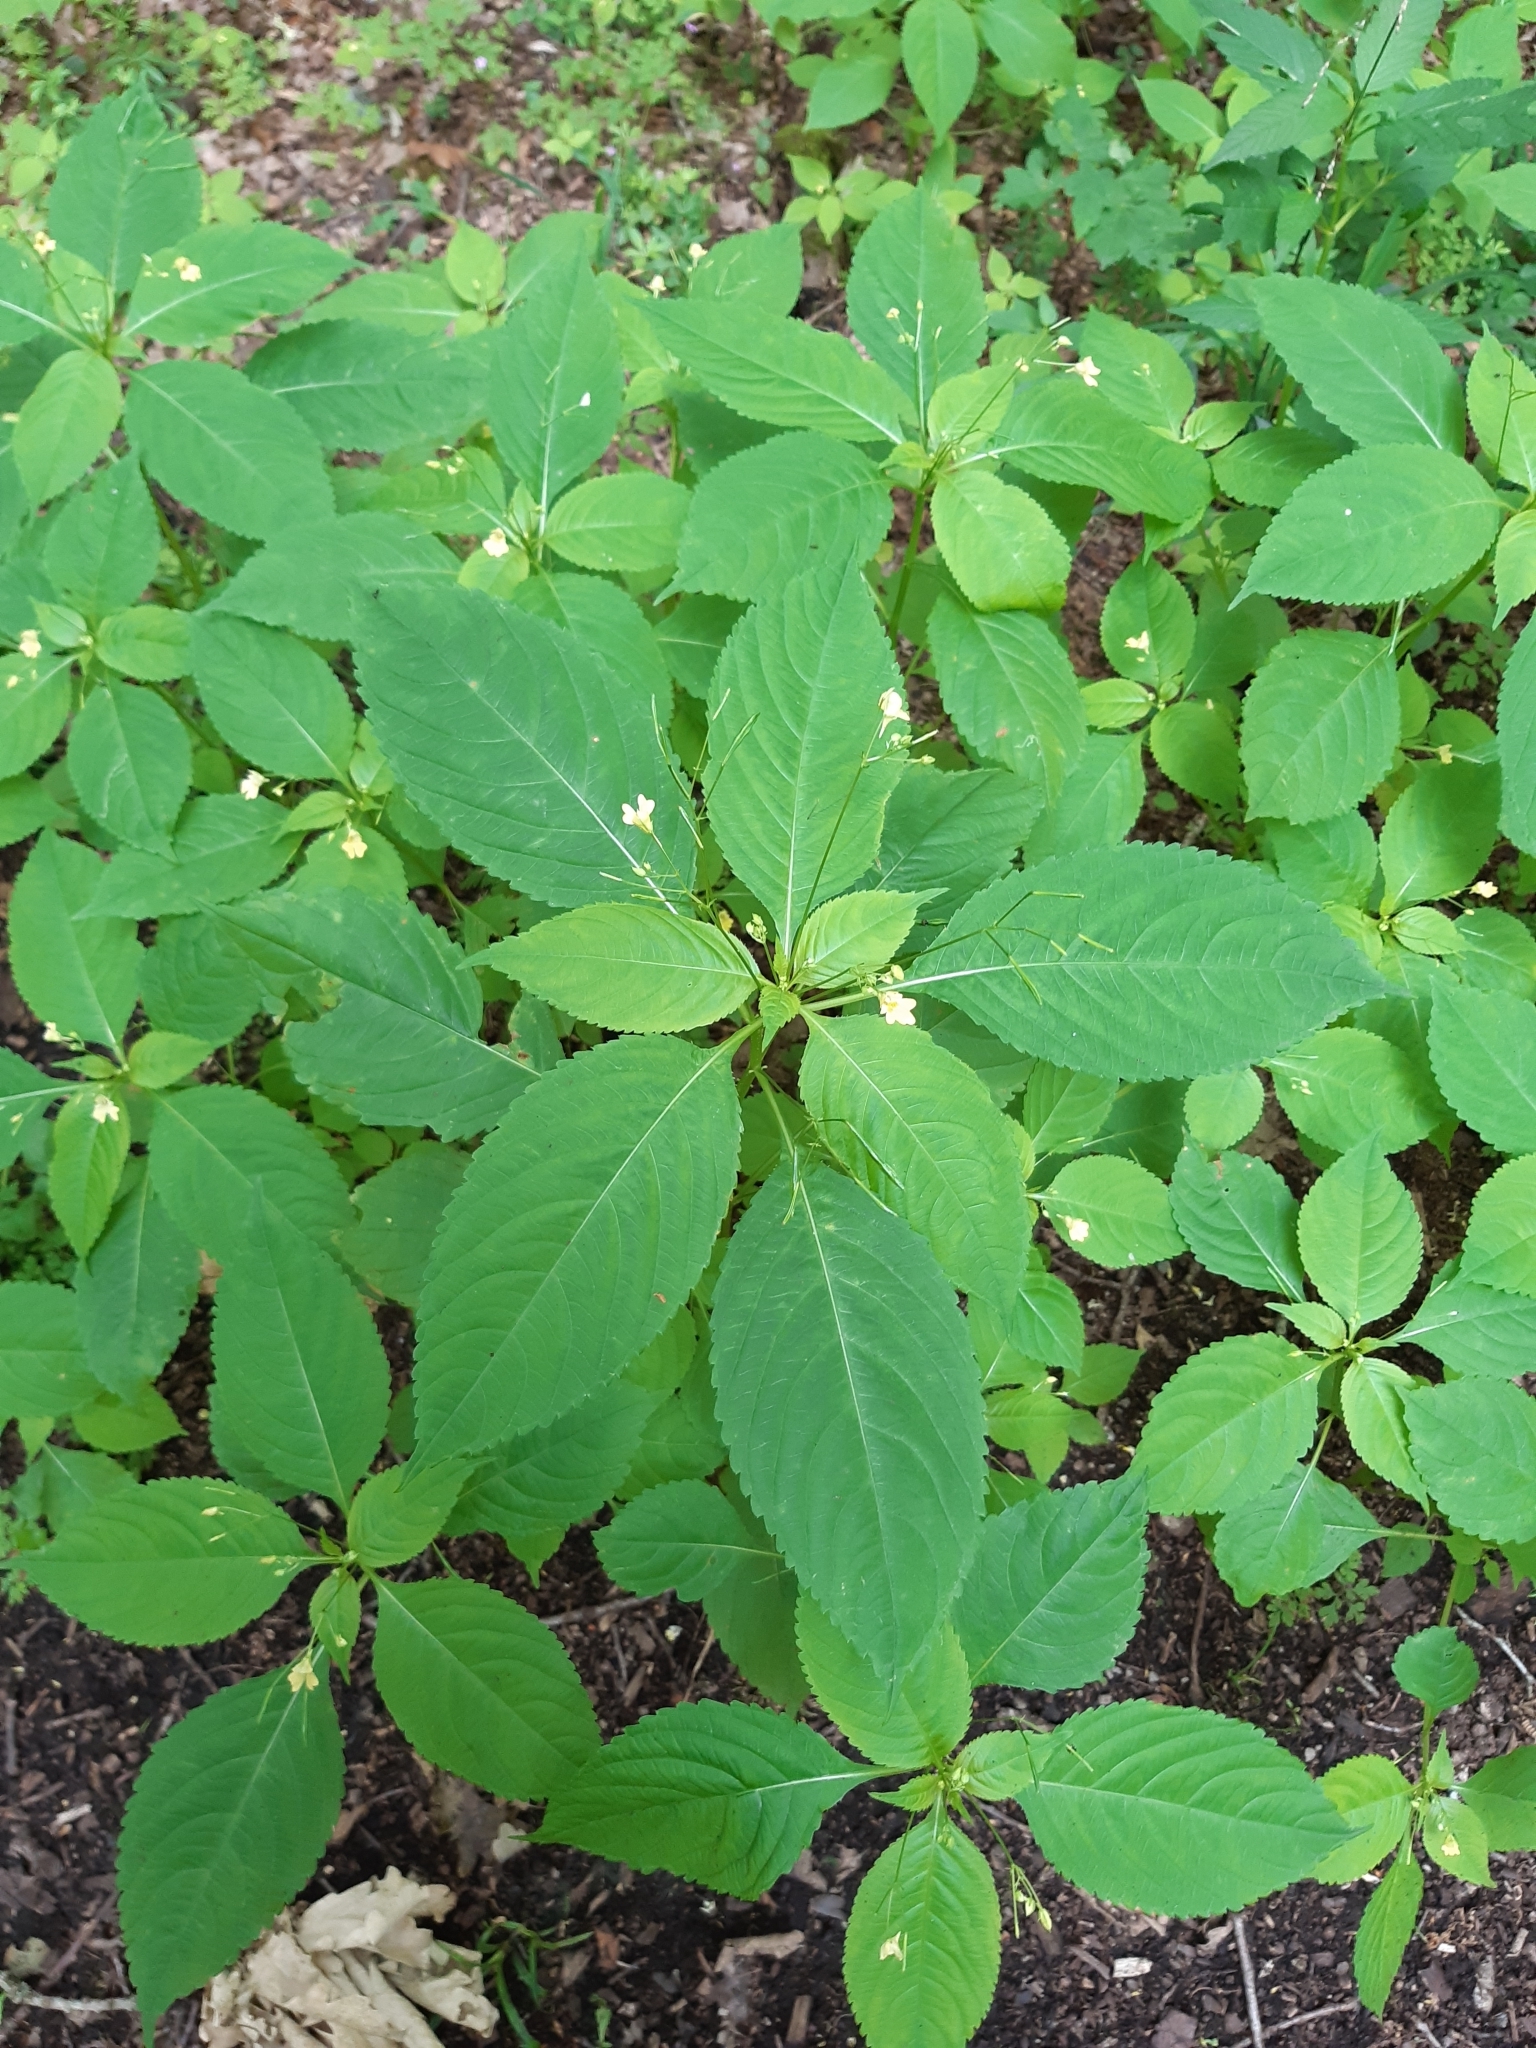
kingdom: Plantae
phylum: Tracheophyta
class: Magnoliopsida
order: Ericales
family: Balsaminaceae
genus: Impatiens
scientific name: Impatiens parviflora
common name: Small balsam
